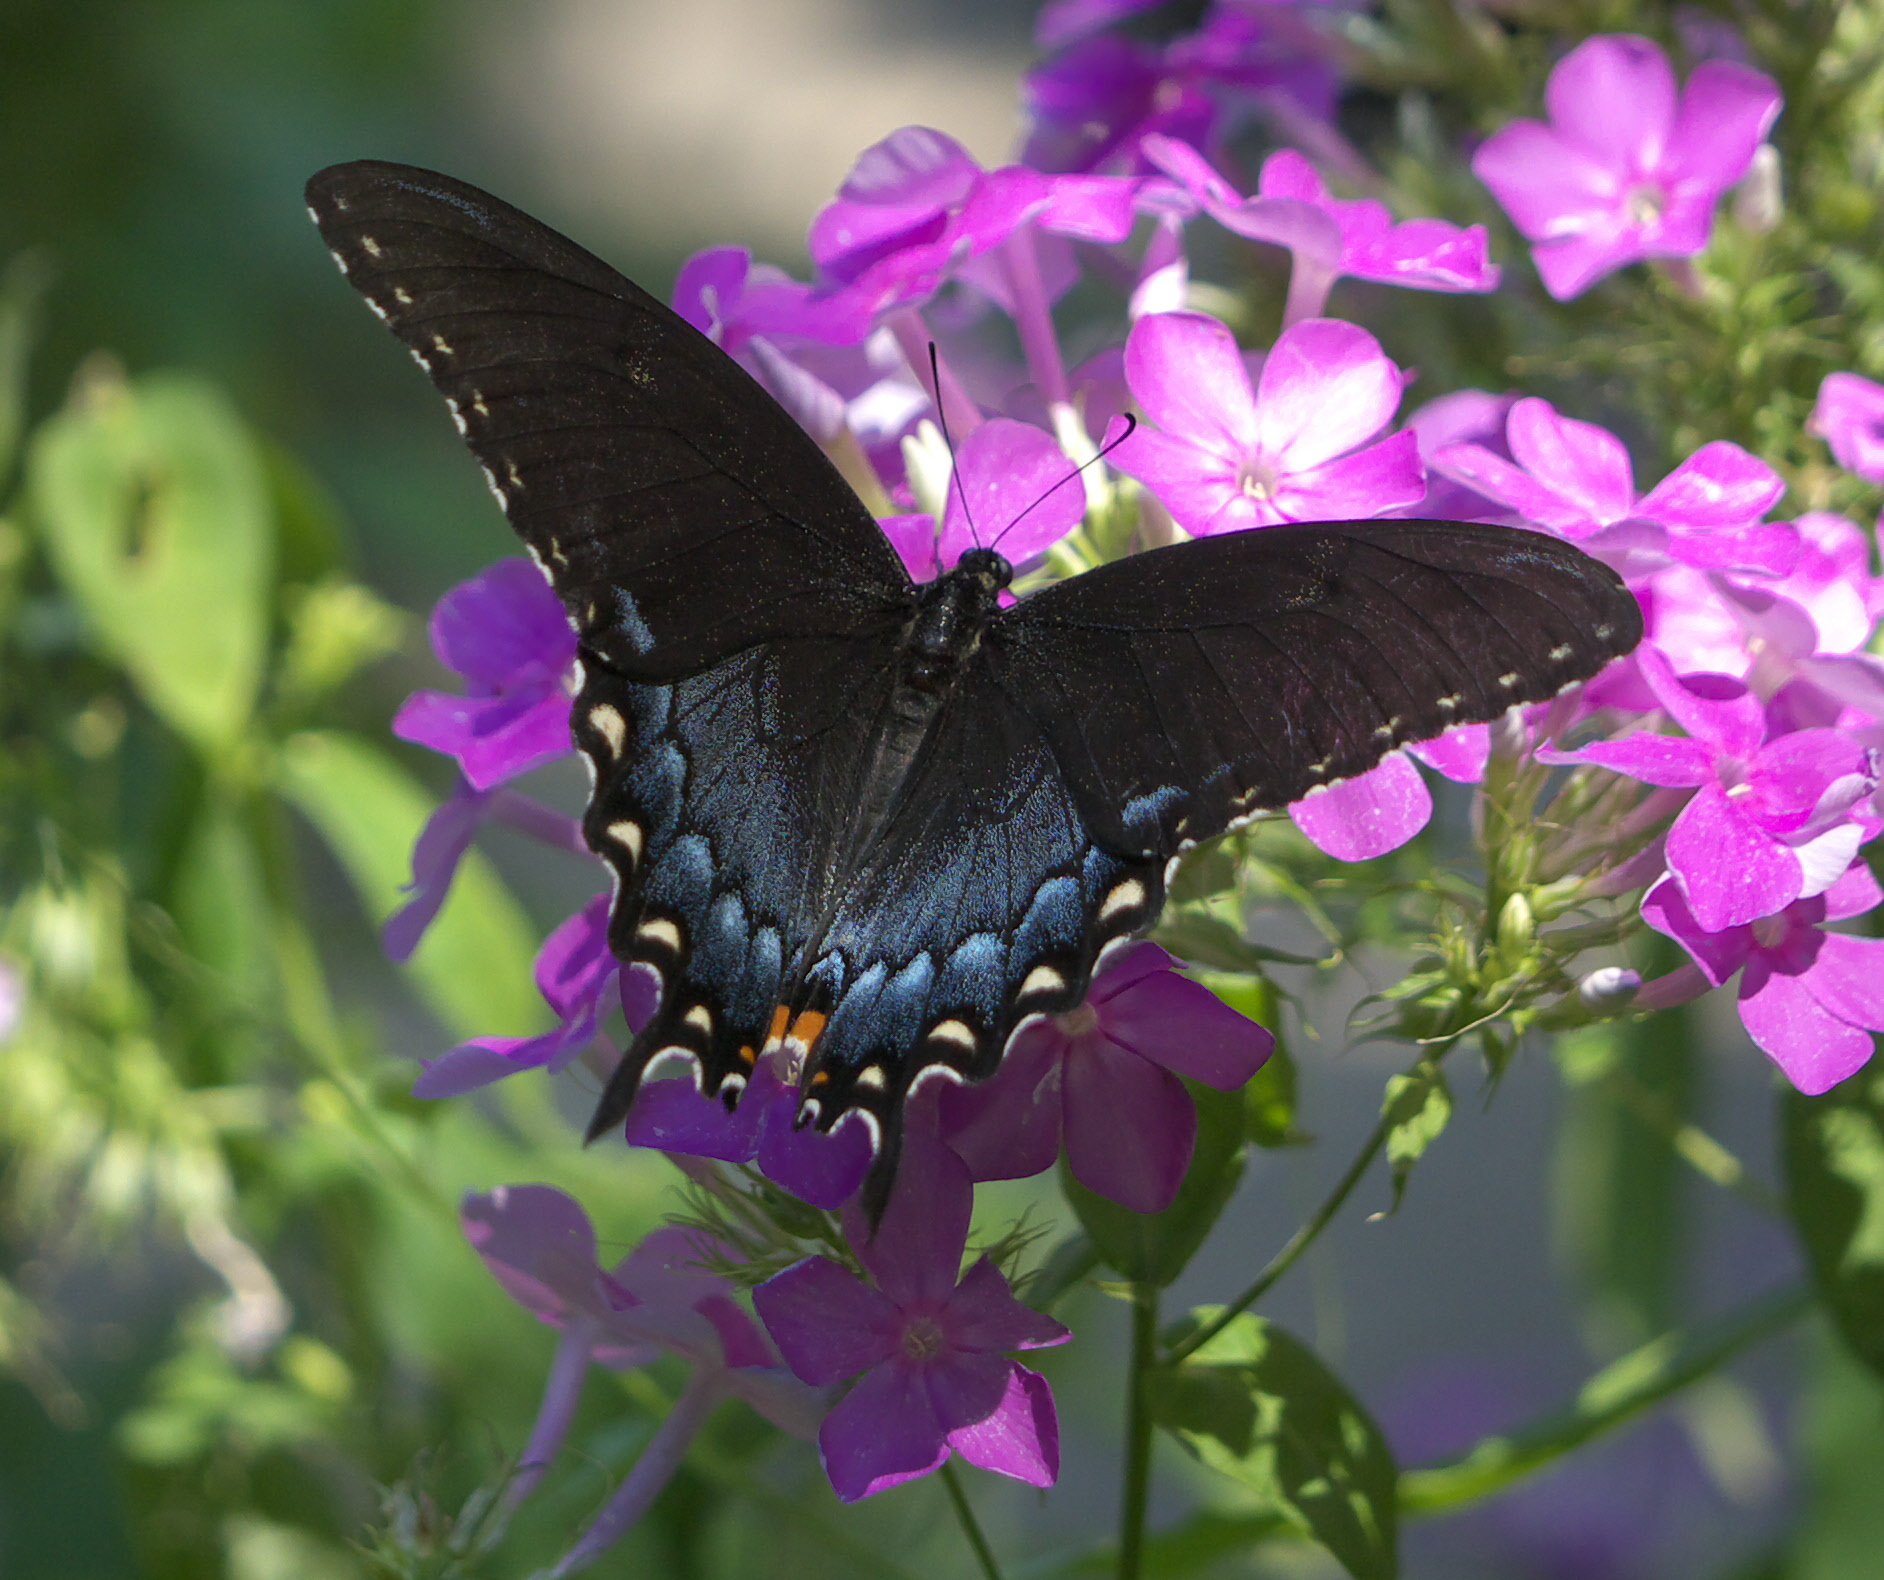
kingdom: Animalia
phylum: Arthropoda
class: Insecta
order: Lepidoptera
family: Papilionidae
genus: Papilio
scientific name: Papilio glaucus
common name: Tiger swallowtail
